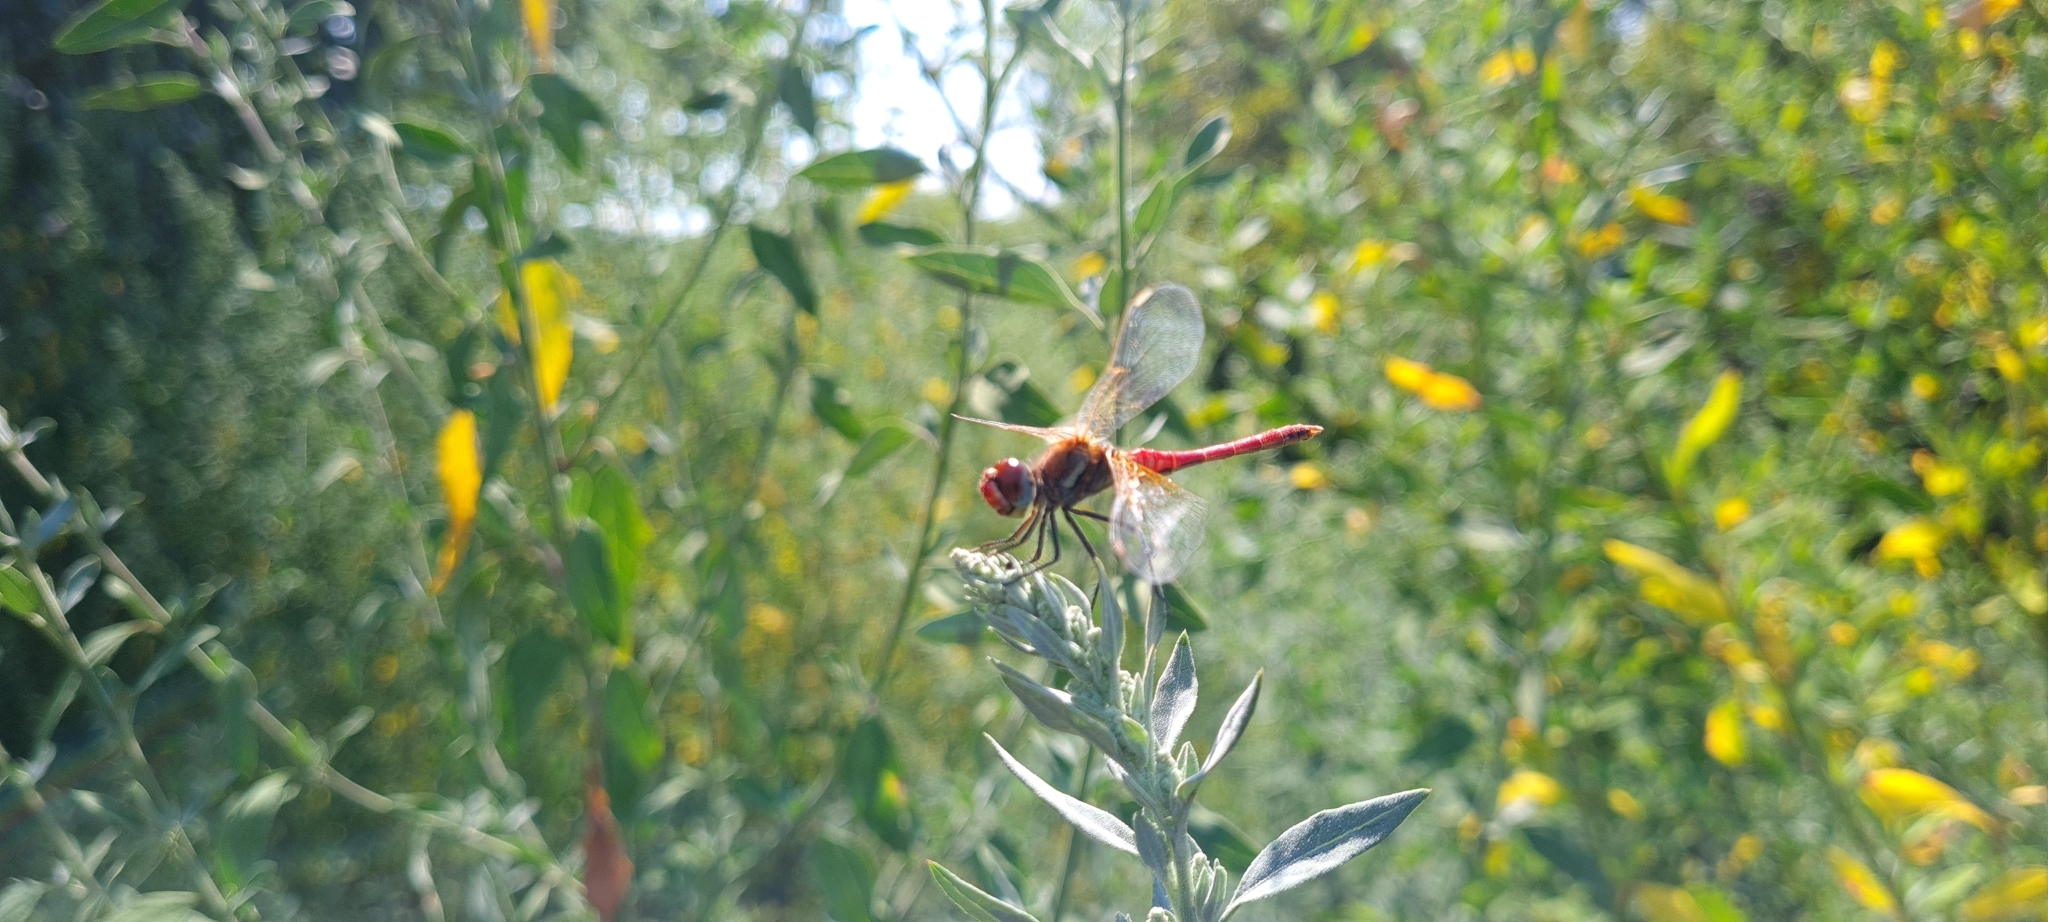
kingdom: Animalia
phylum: Arthropoda
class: Insecta
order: Odonata
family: Libellulidae
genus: Sympetrum
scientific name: Sympetrum fonscolombii
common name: Red-veined darter
